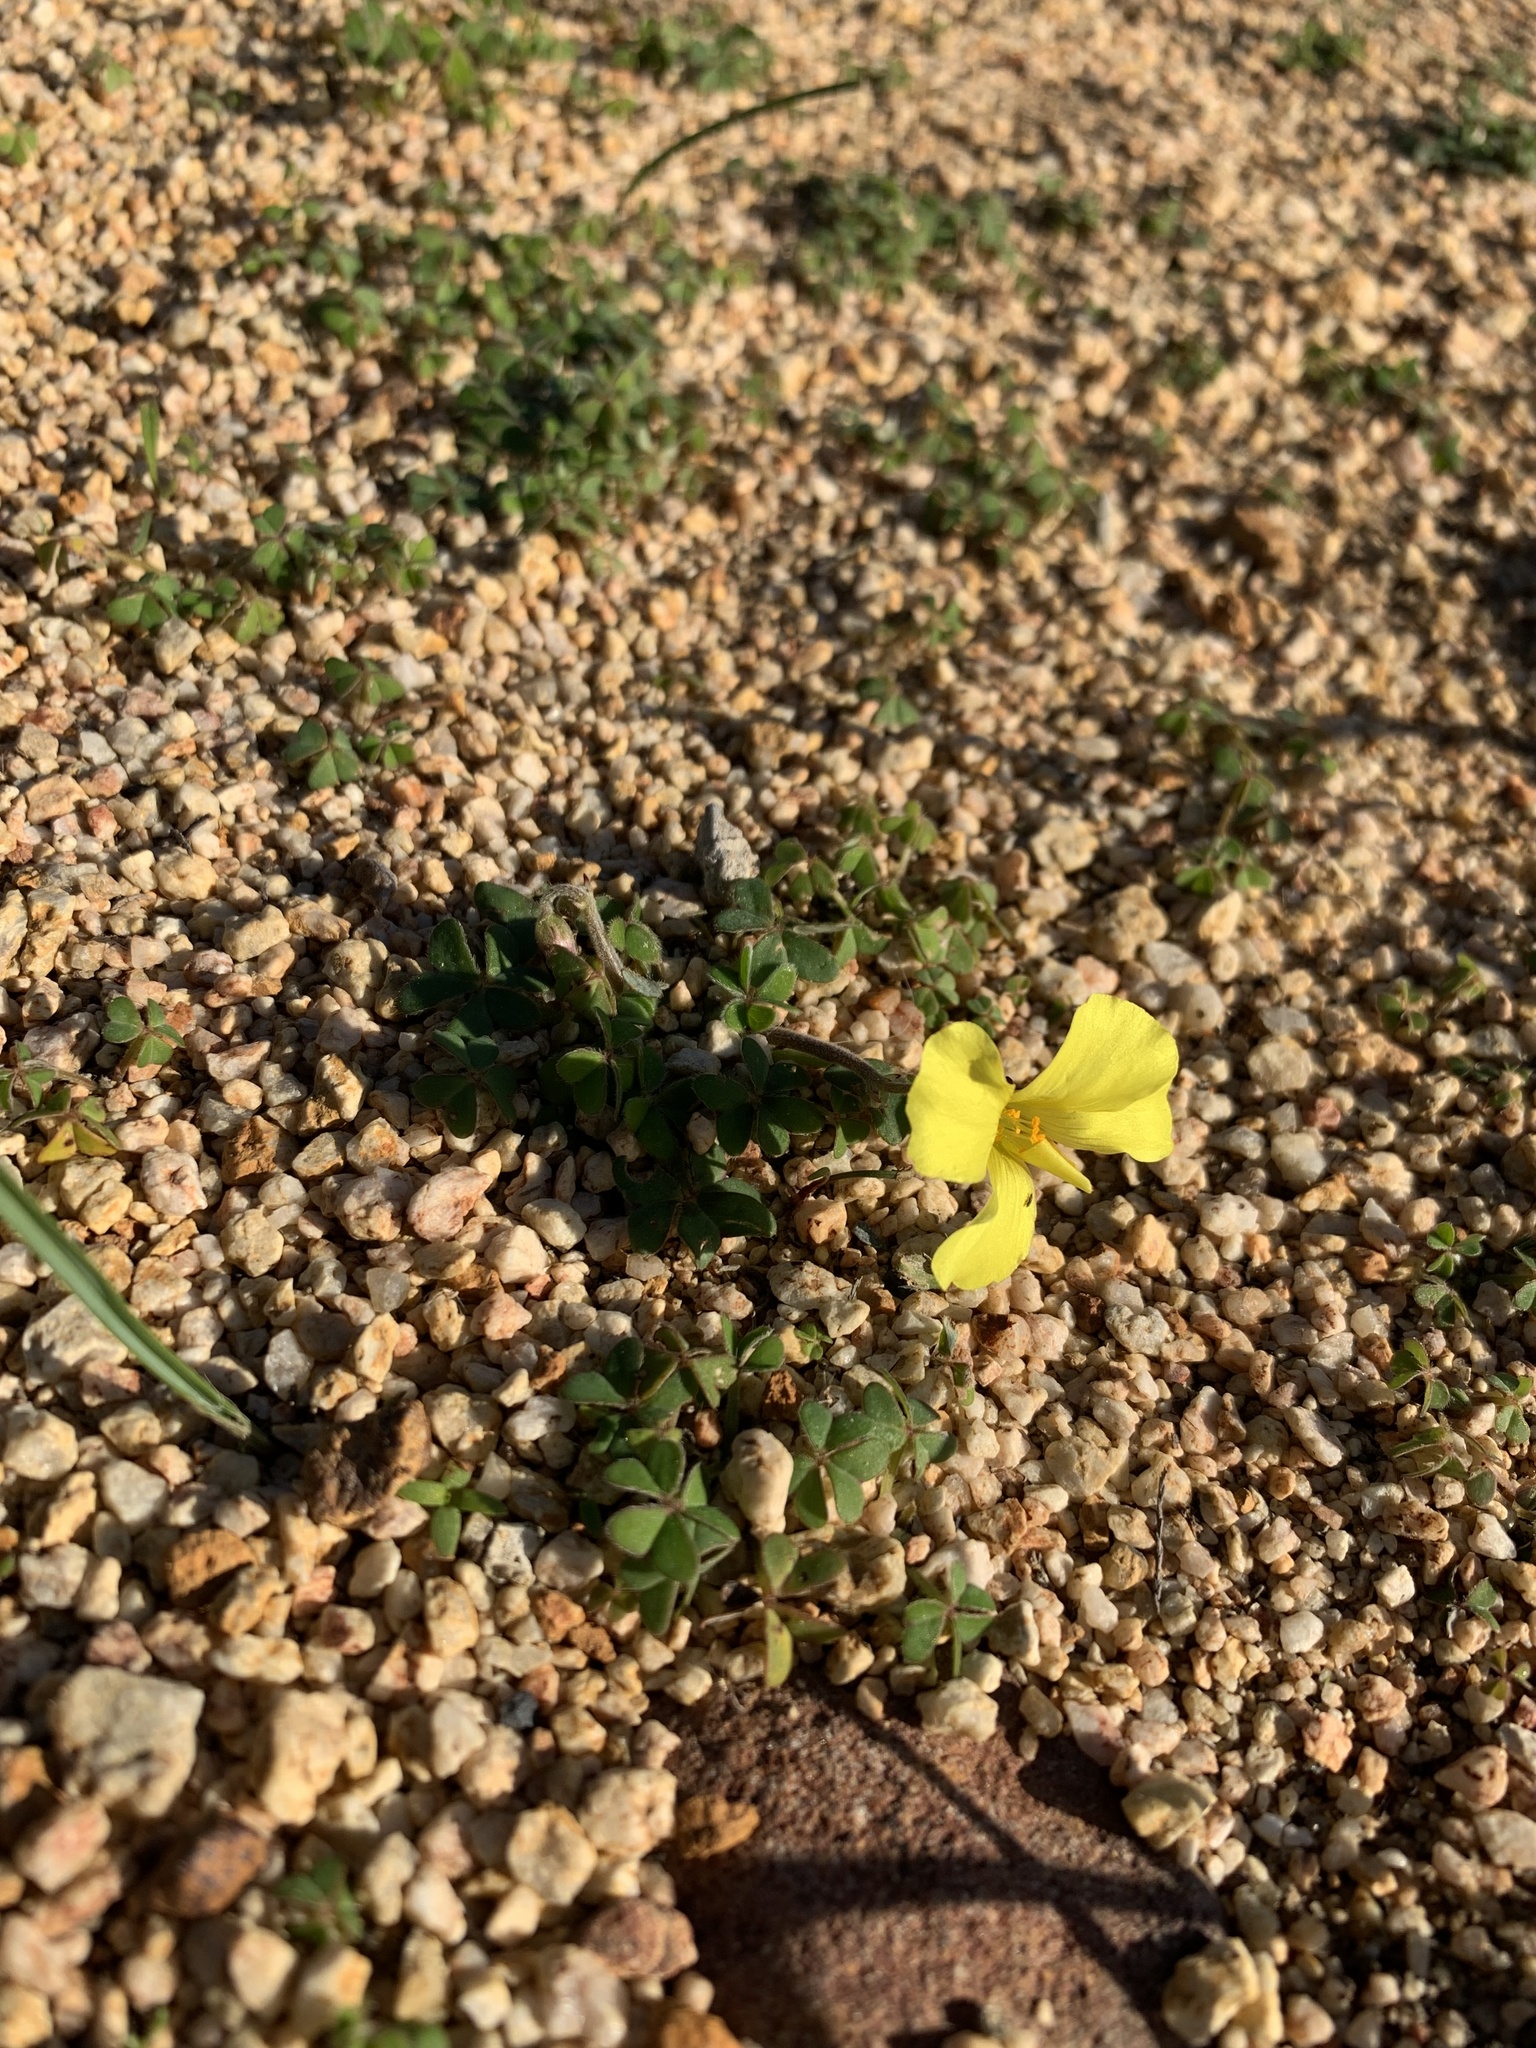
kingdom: Plantae
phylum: Tracheophyta
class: Magnoliopsida
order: Oxalidales
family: Oxalidaceae
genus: Oxalis
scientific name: Oxalis luteola
